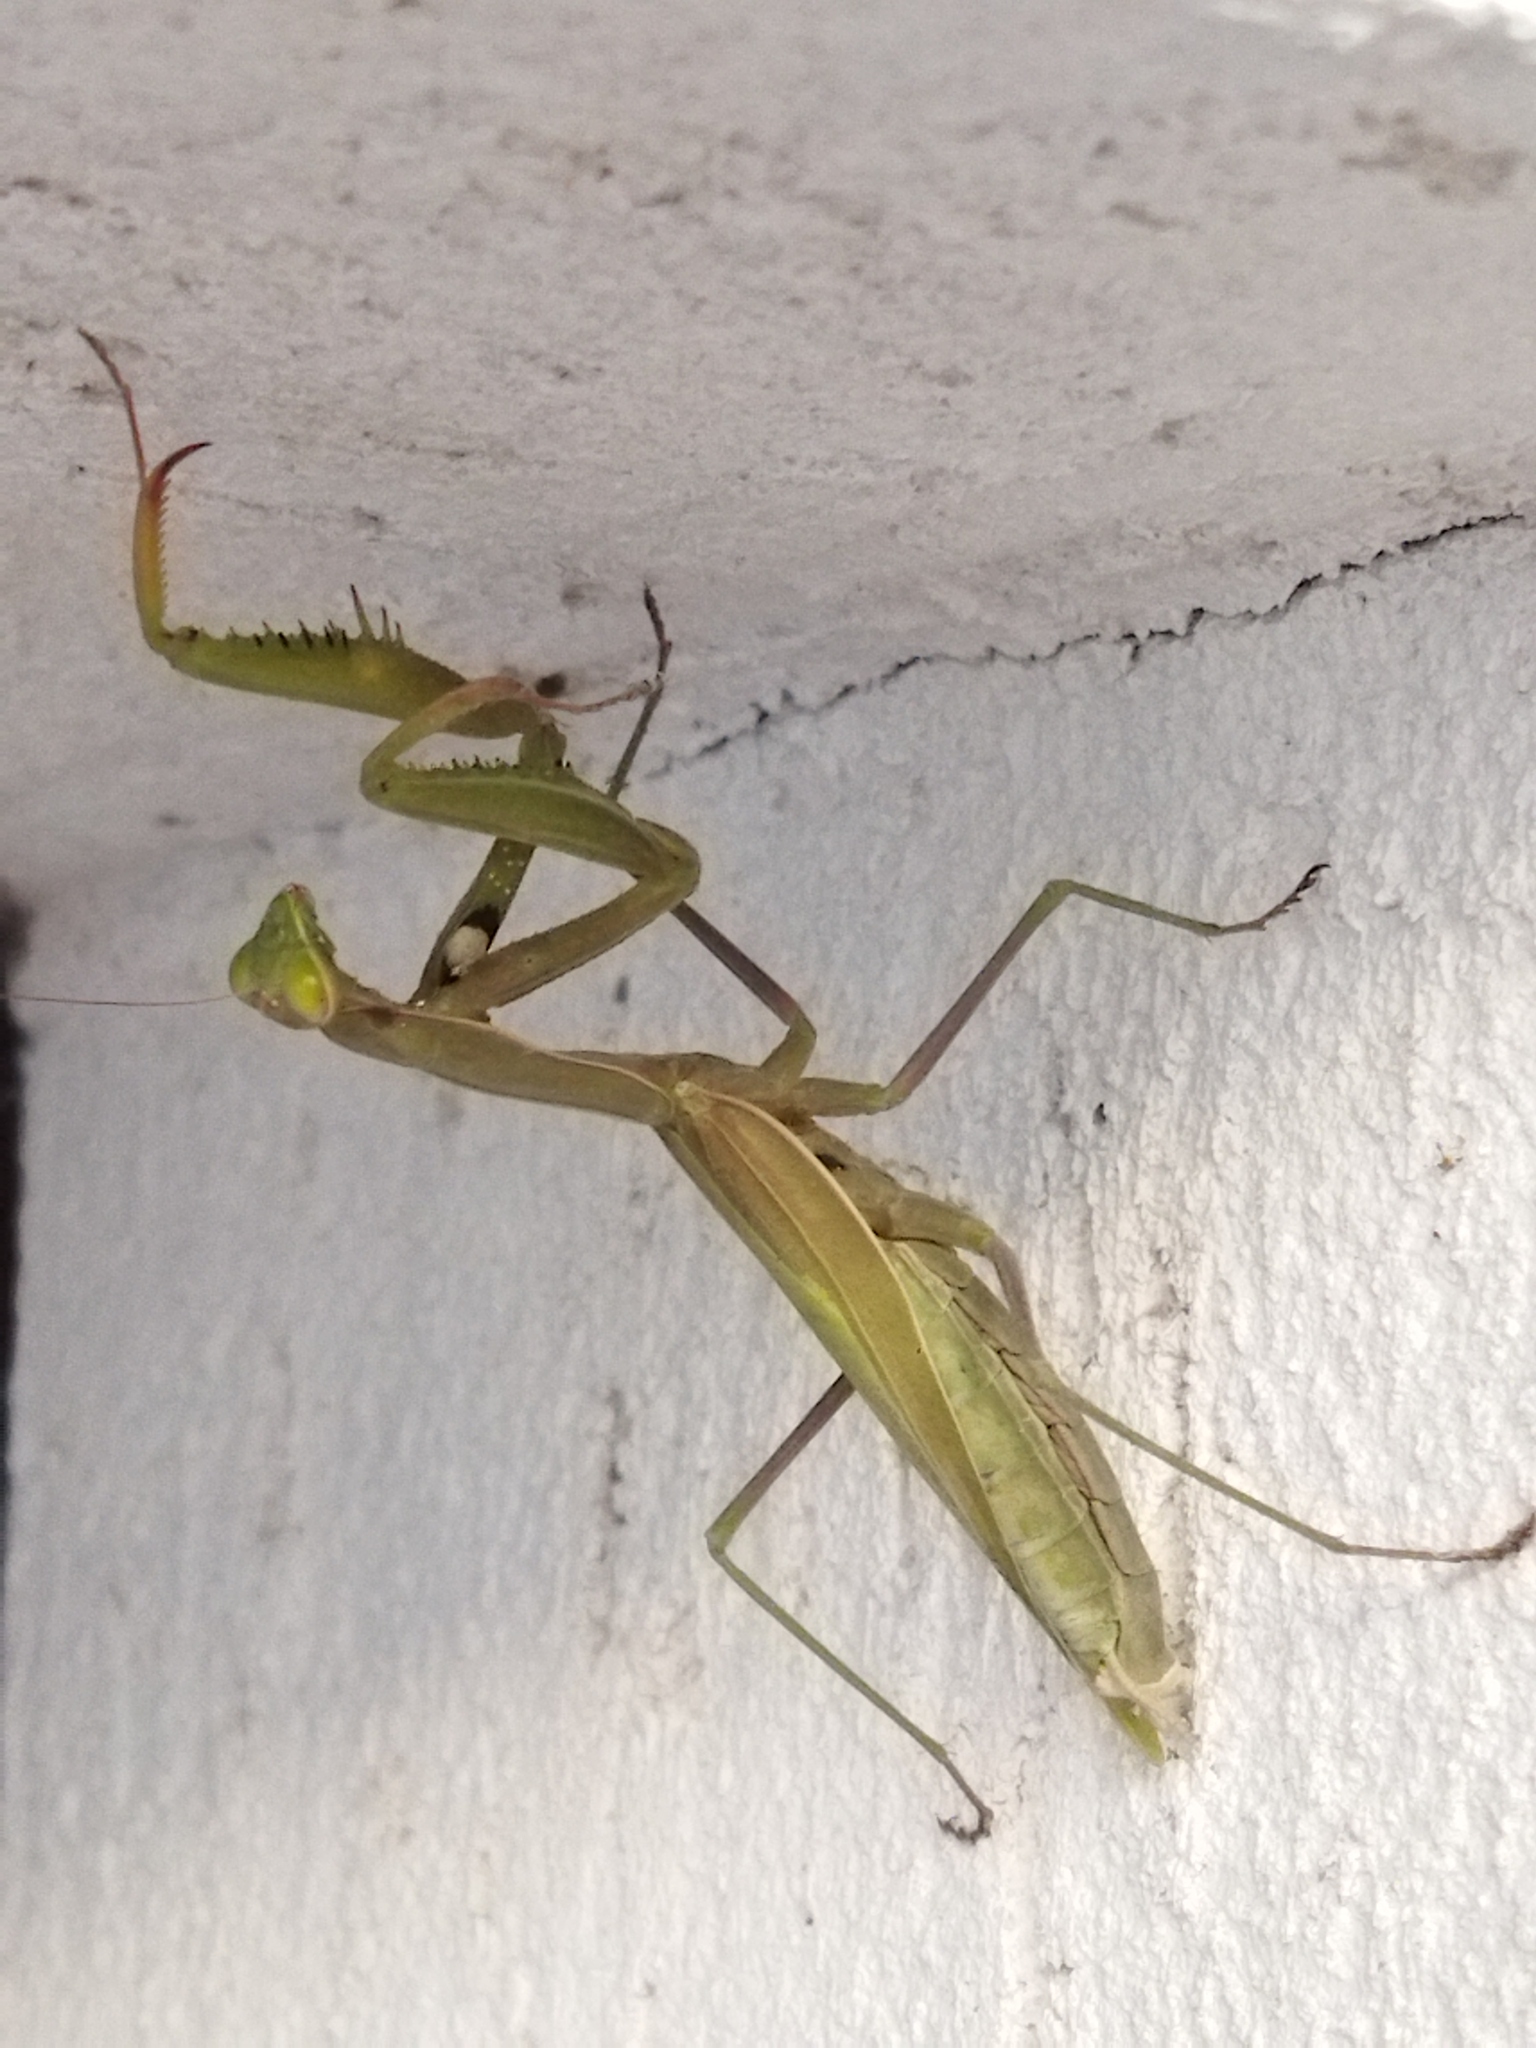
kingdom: Animalia
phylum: Arthropoda
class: Insecta
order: Mantodea
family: Mantidae
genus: Mantis
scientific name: Mantis religiosa
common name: Praying mantis
